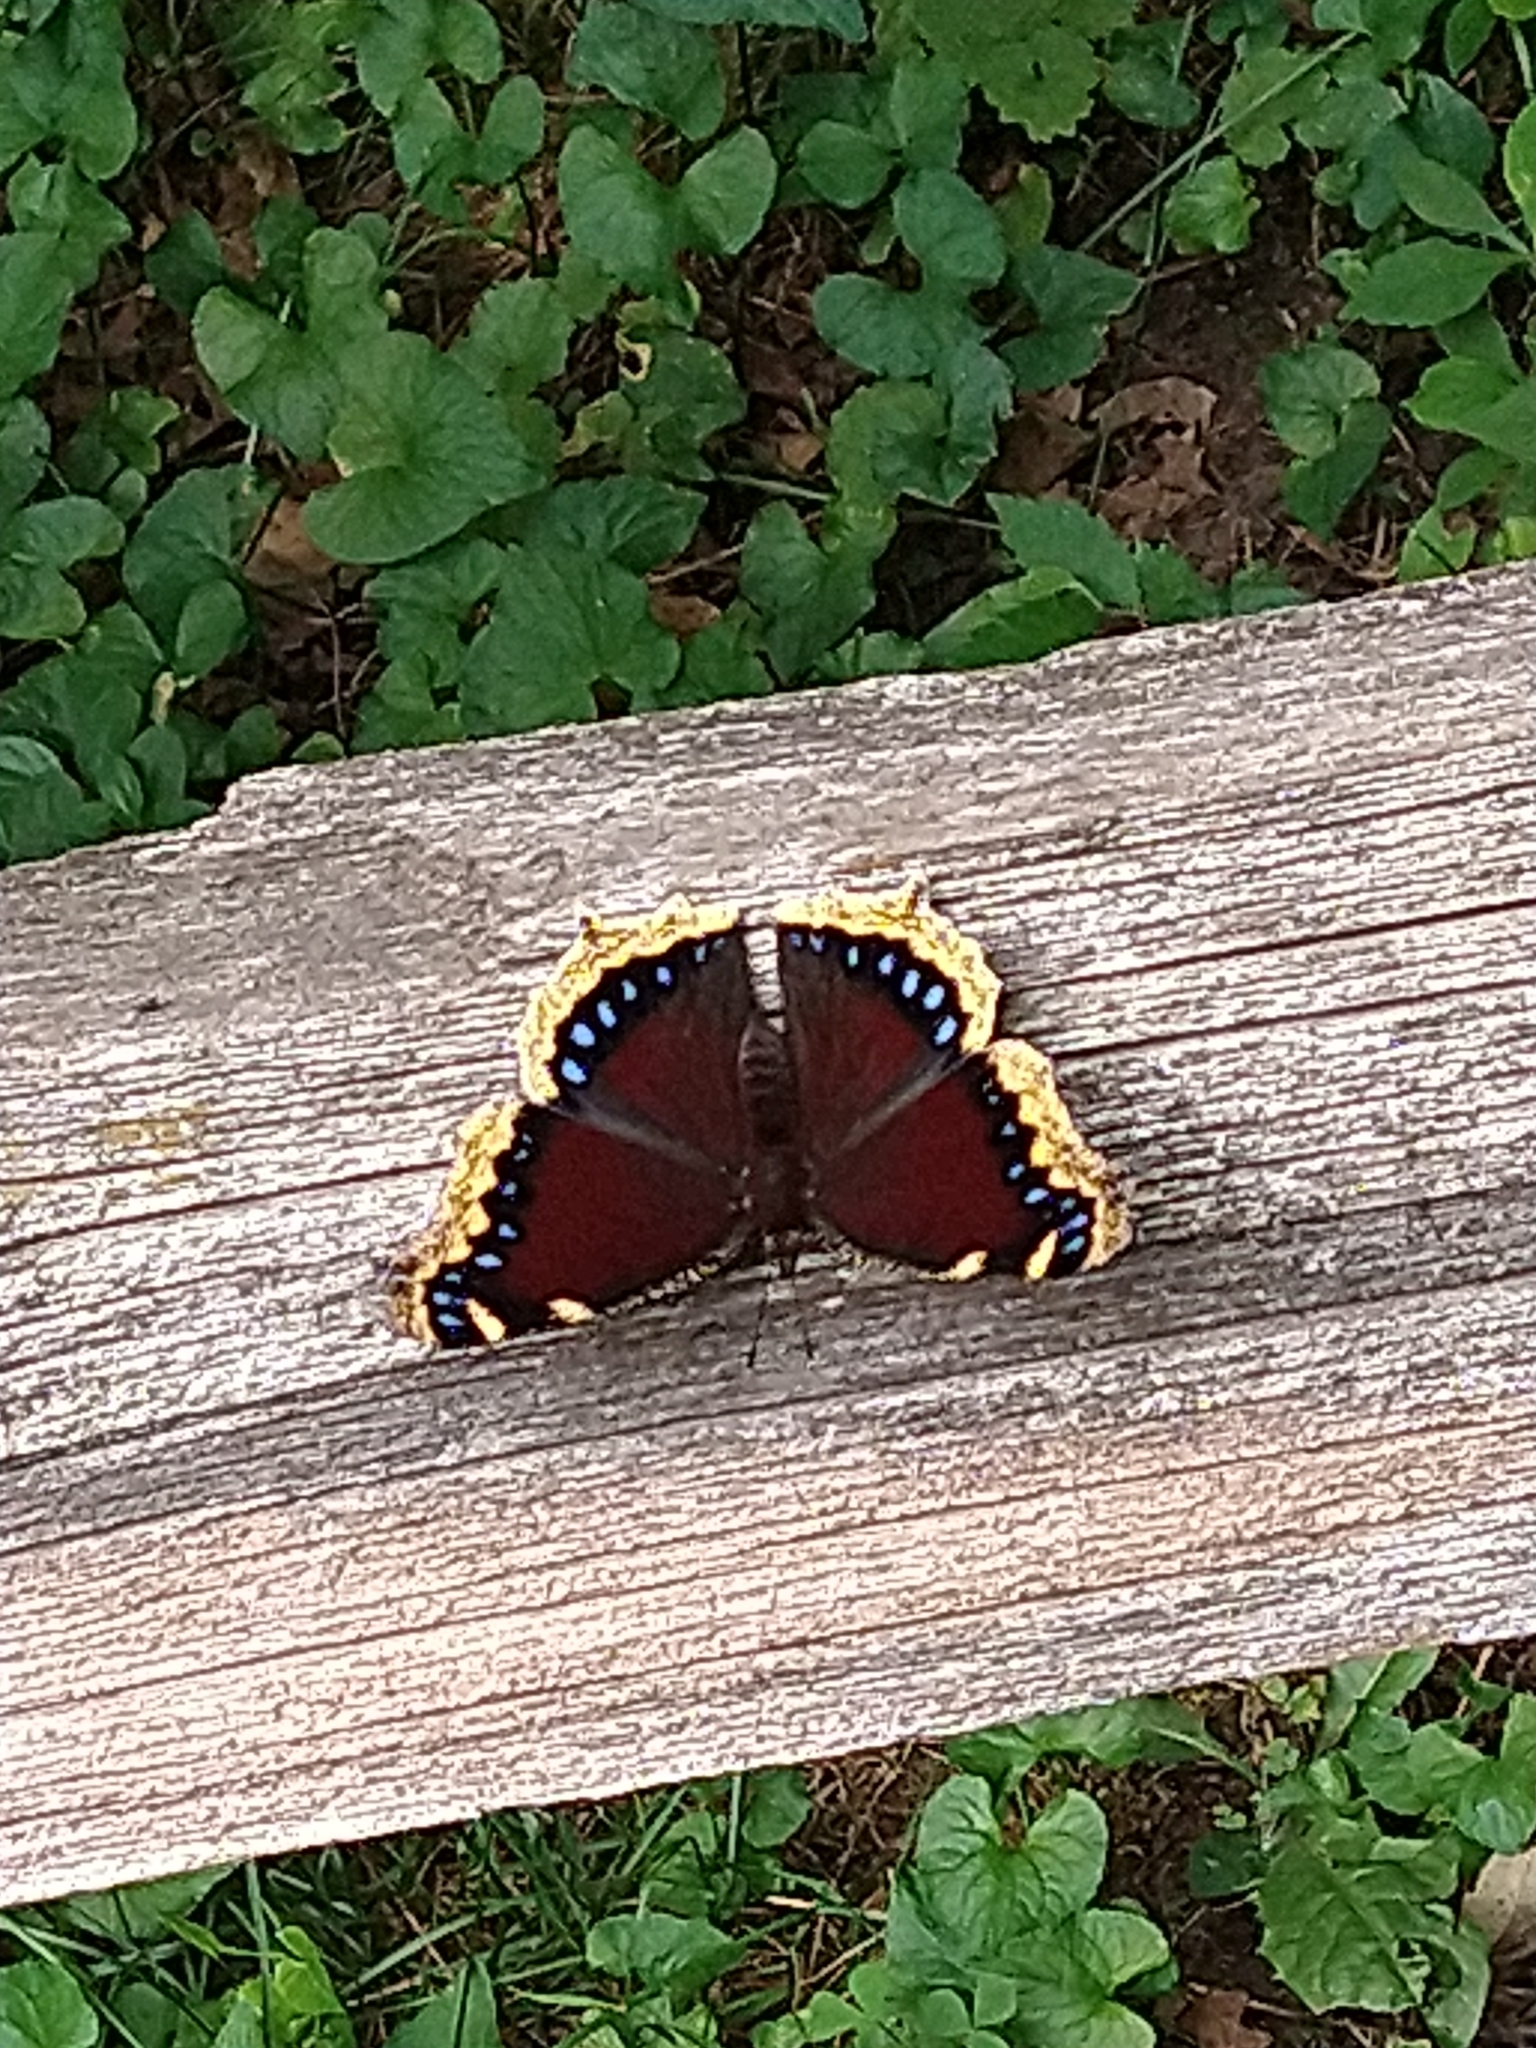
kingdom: Animalia
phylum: Arthropoda
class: Insecta
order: Lepidoptera
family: Nymphalidae
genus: Nymphalis
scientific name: Nymphalis antiopa
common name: Camberwell beauty
